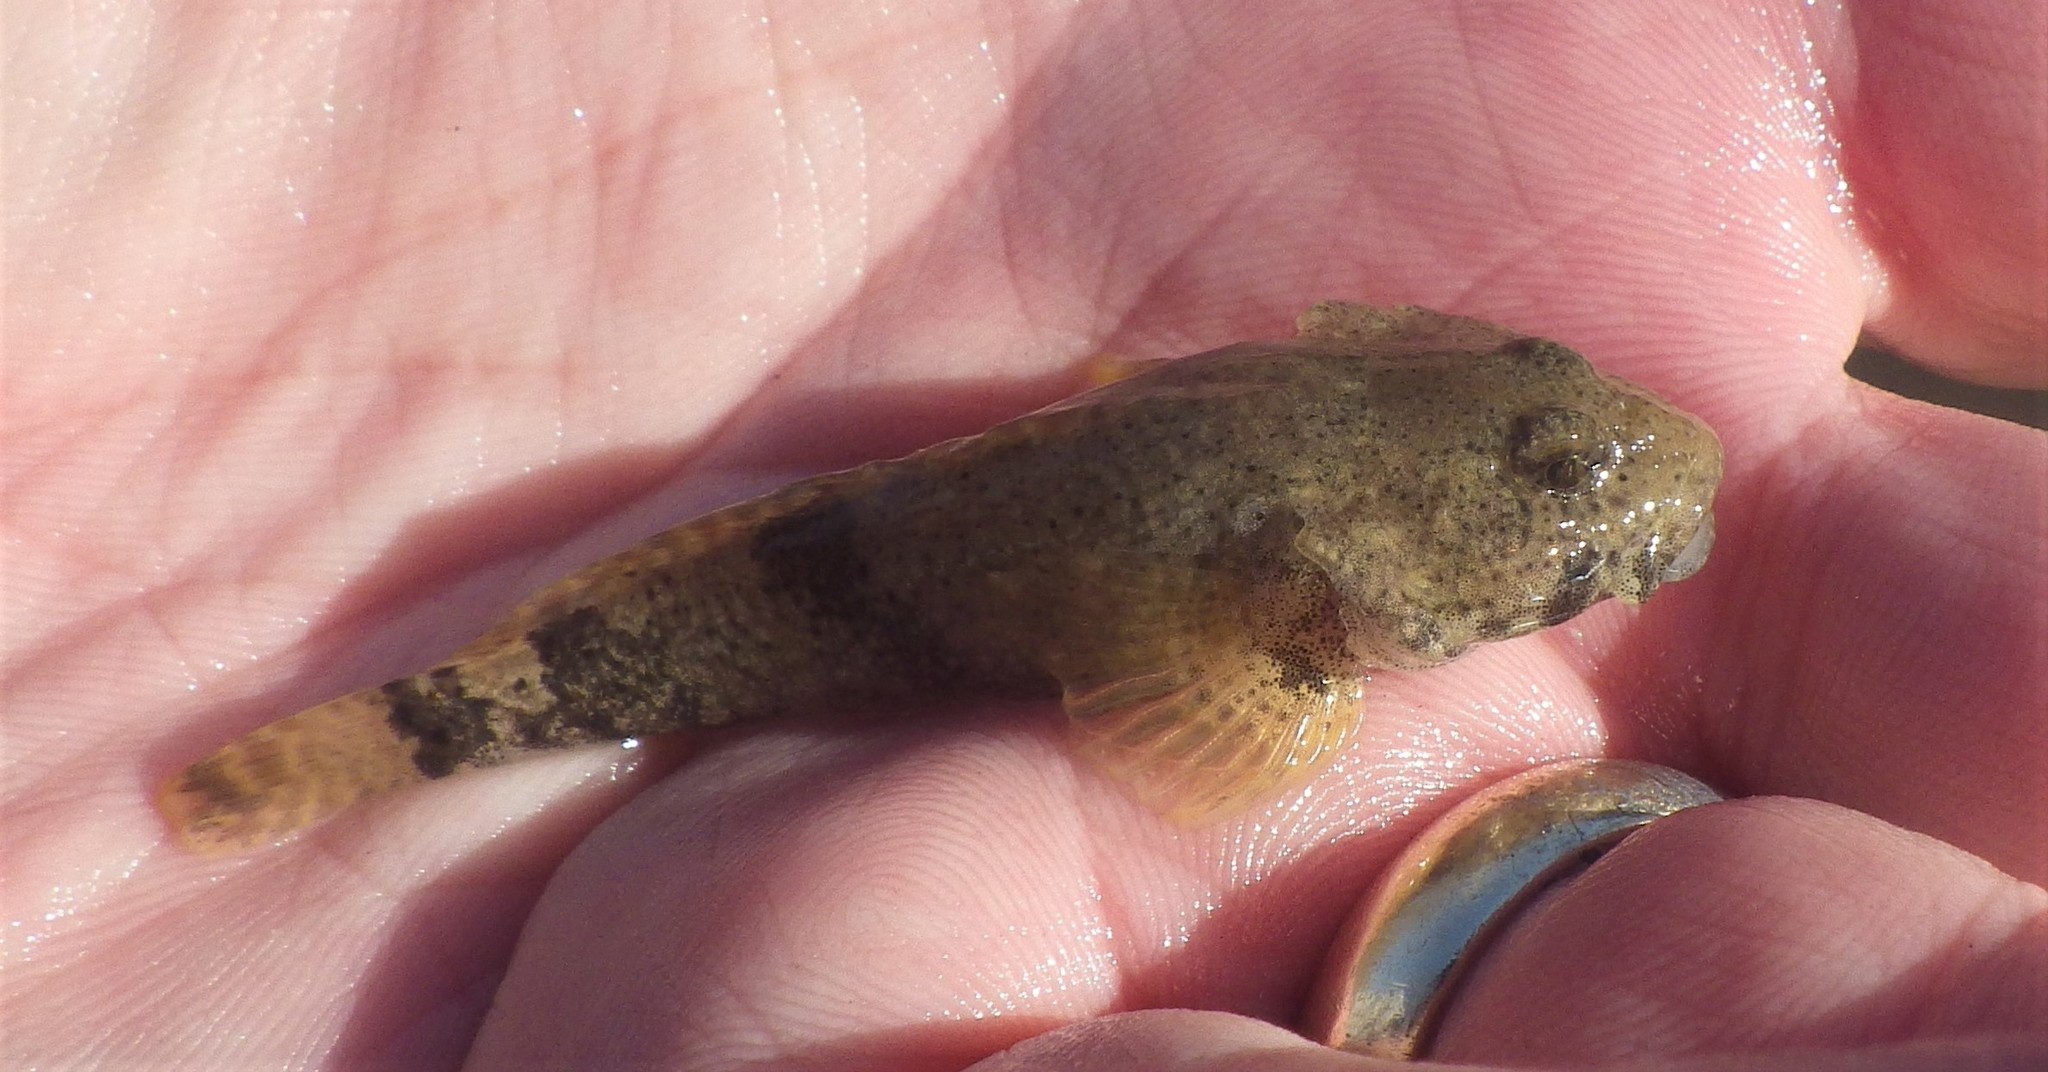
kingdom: Animalia
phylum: Chordata
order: Scorpaeniformes
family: Cottidae
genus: Cottus
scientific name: Cottus bairdii
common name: Mottled sculpin
